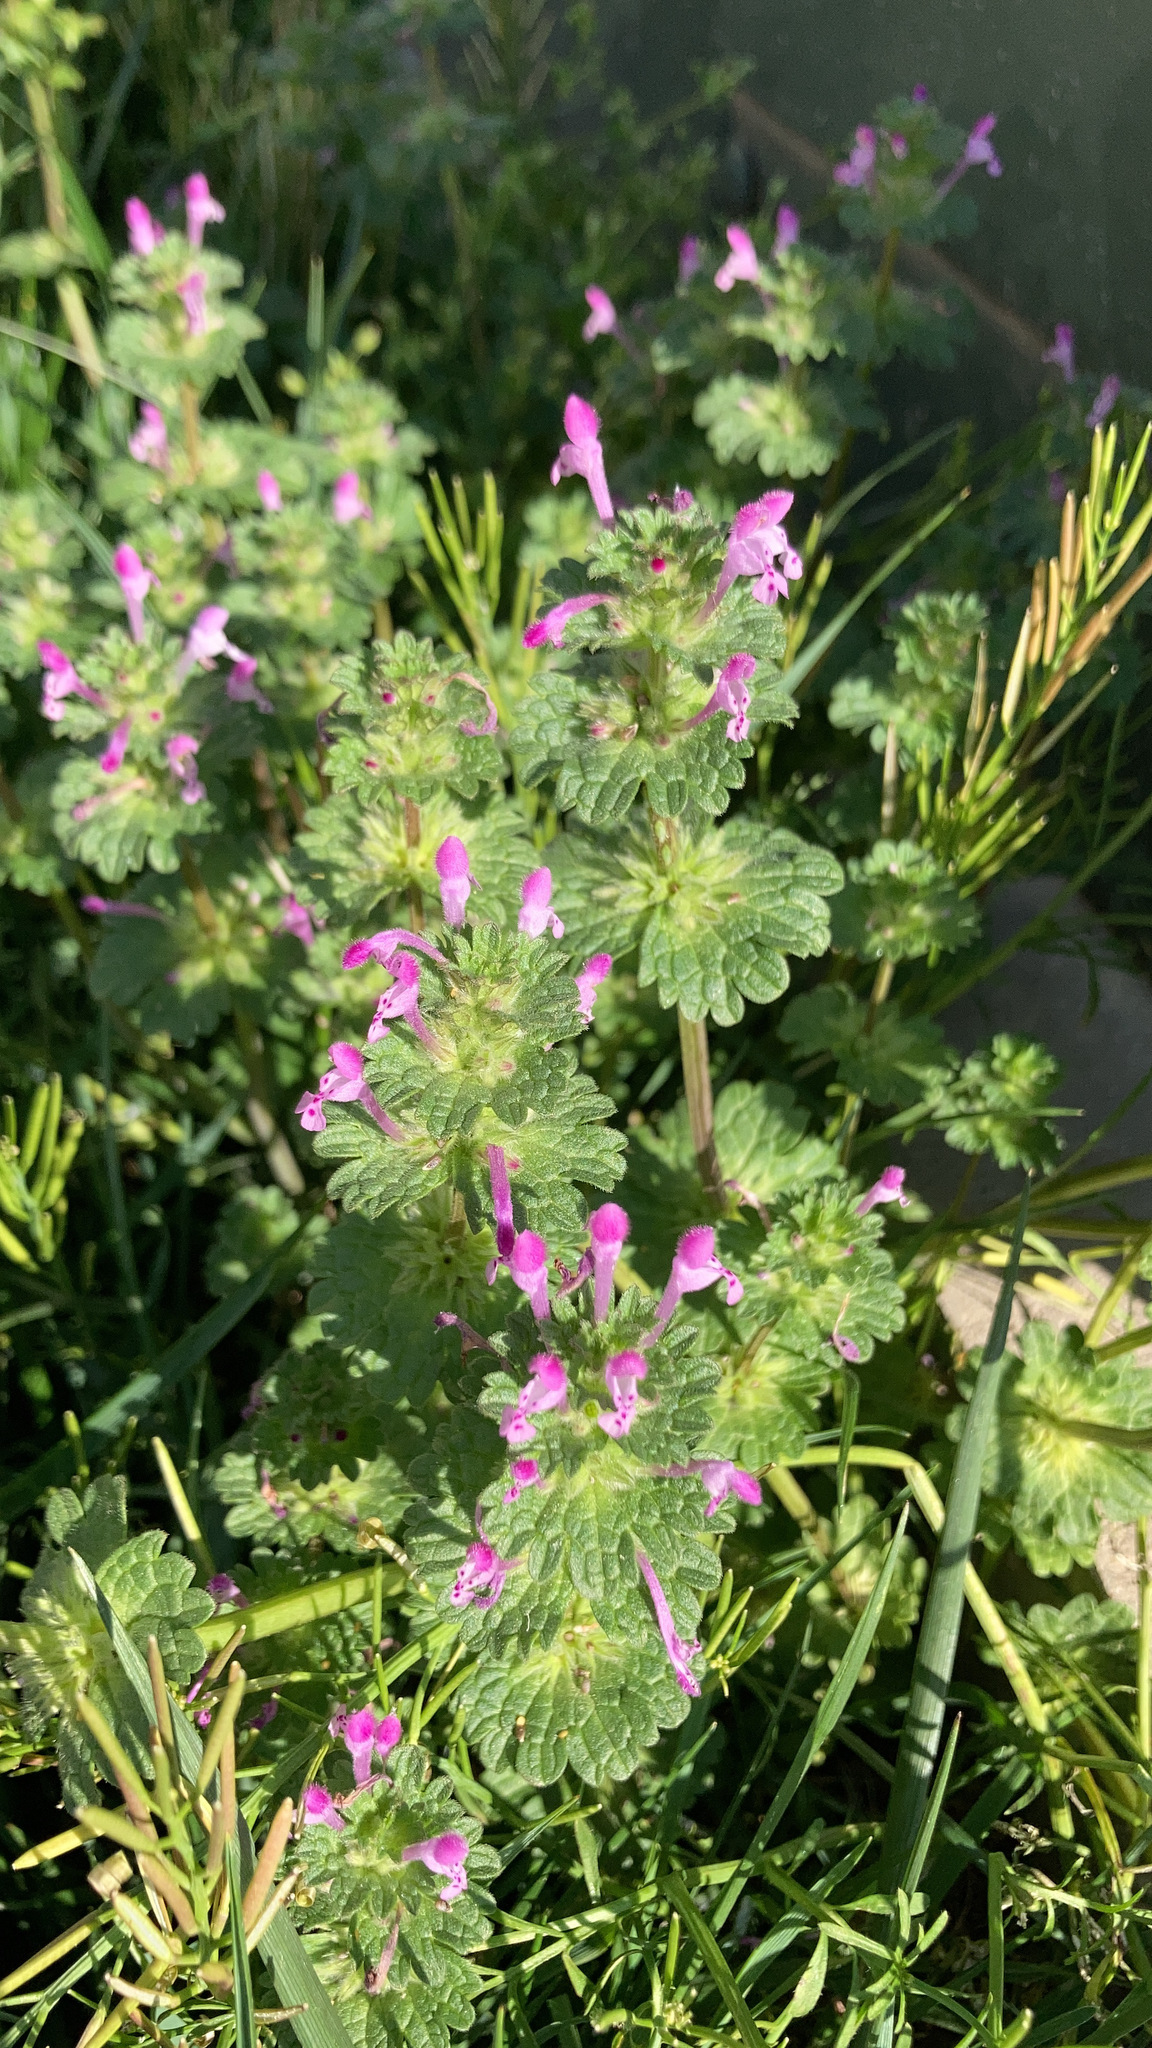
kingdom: Plantae
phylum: Tracheophyta
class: Magnoliopsida
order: Lamiales
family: Lamiaceae
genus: Lamium
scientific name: Lamium amplexicaule
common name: Henbit dead-nettle
